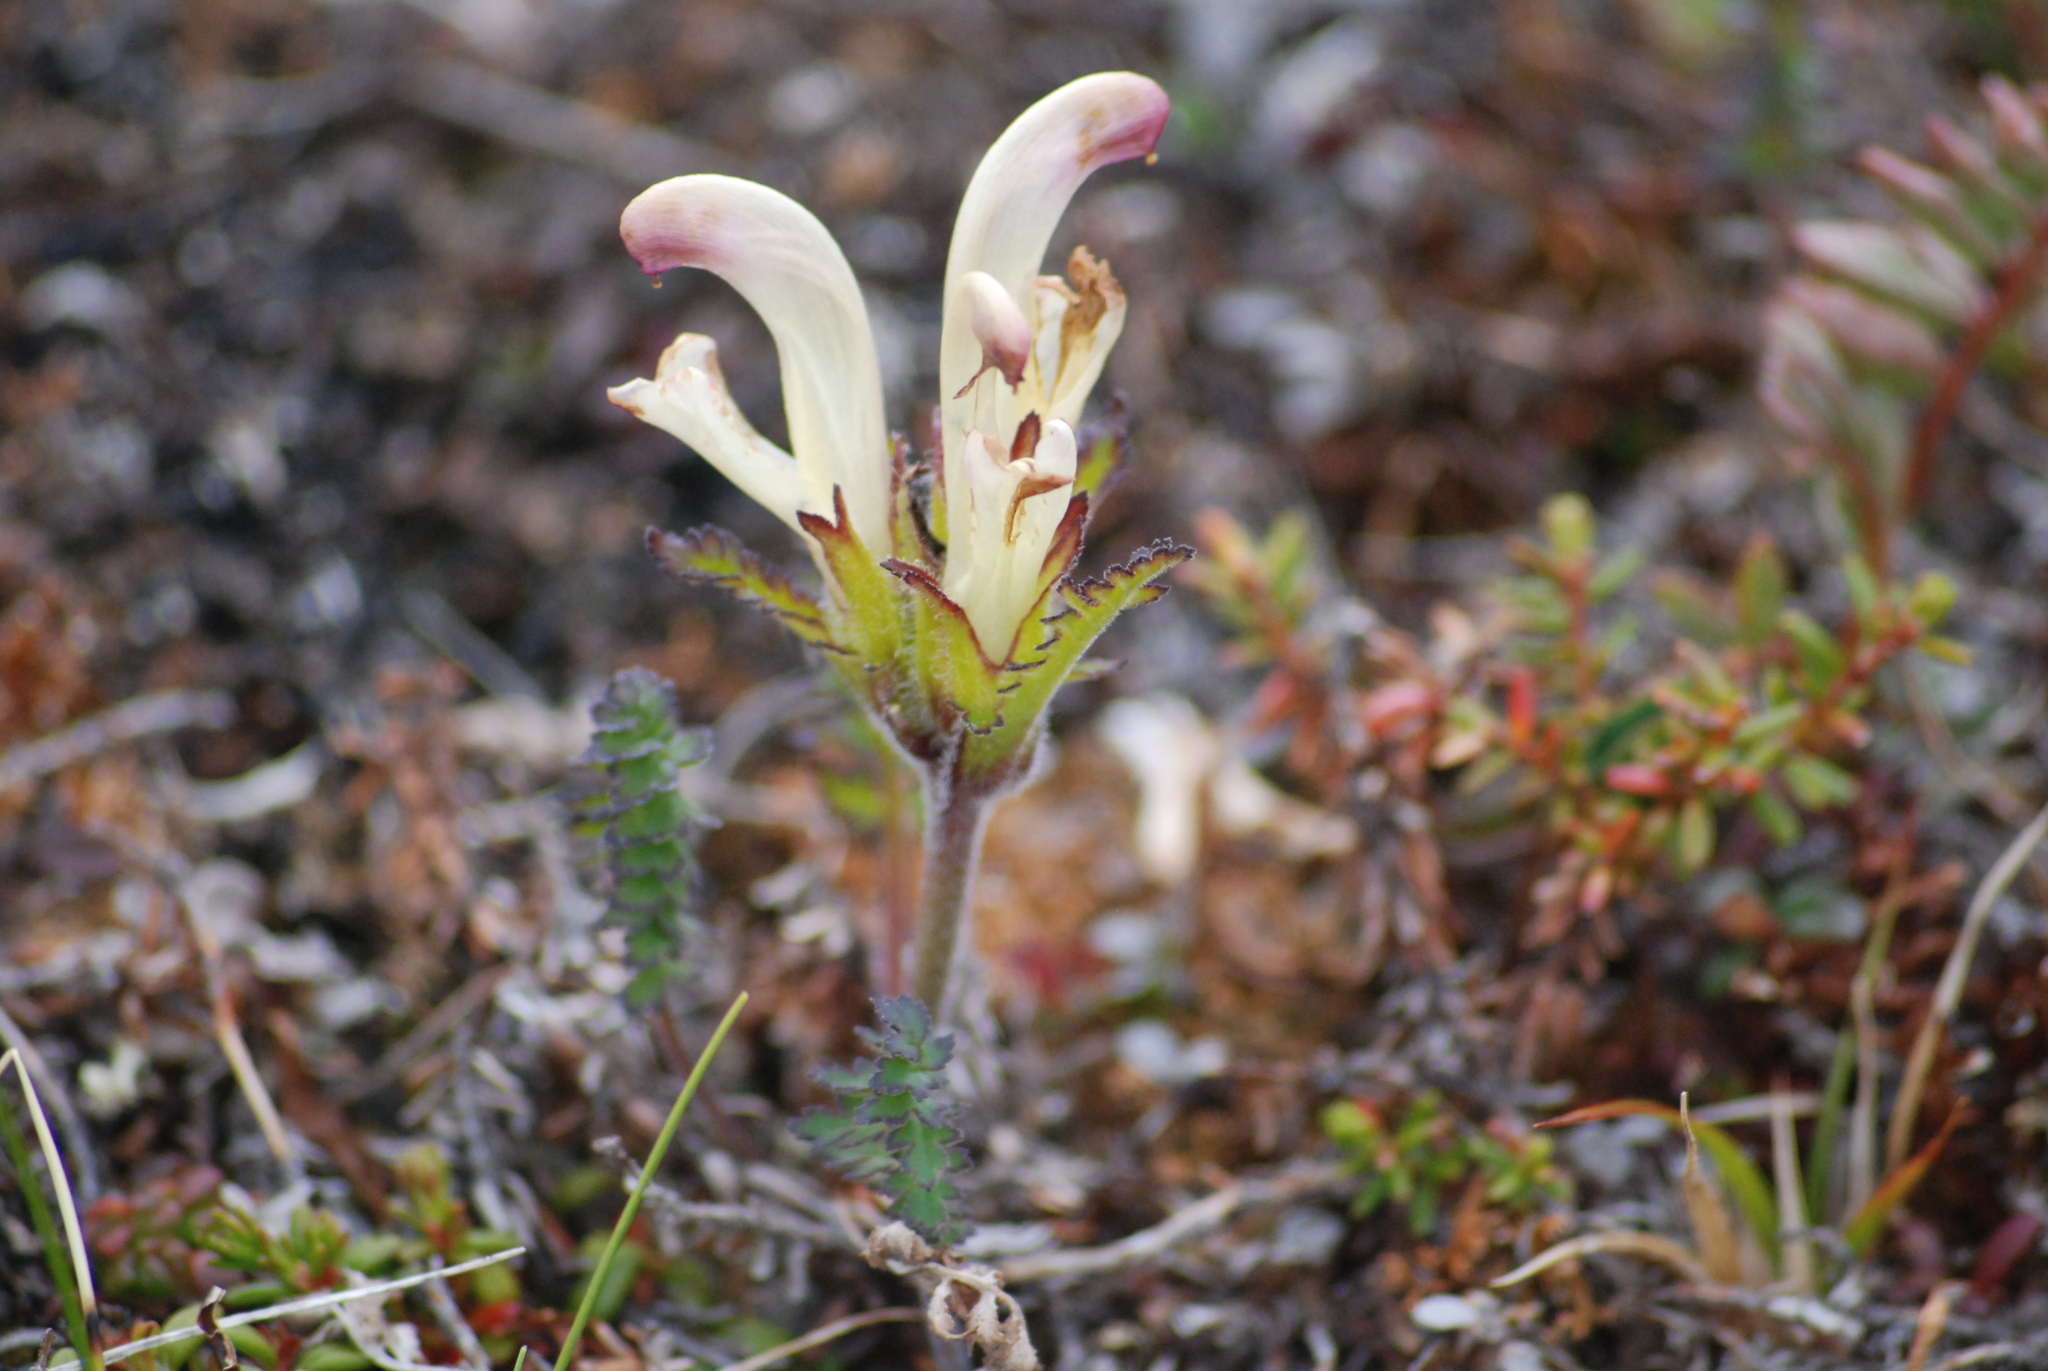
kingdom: Plantae
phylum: Tracheophyta
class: Magnoliopsida
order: Lamiales
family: Orobanchaceae
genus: Pedicularis
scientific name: Pedicularis capitata
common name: Capitate lousewort
